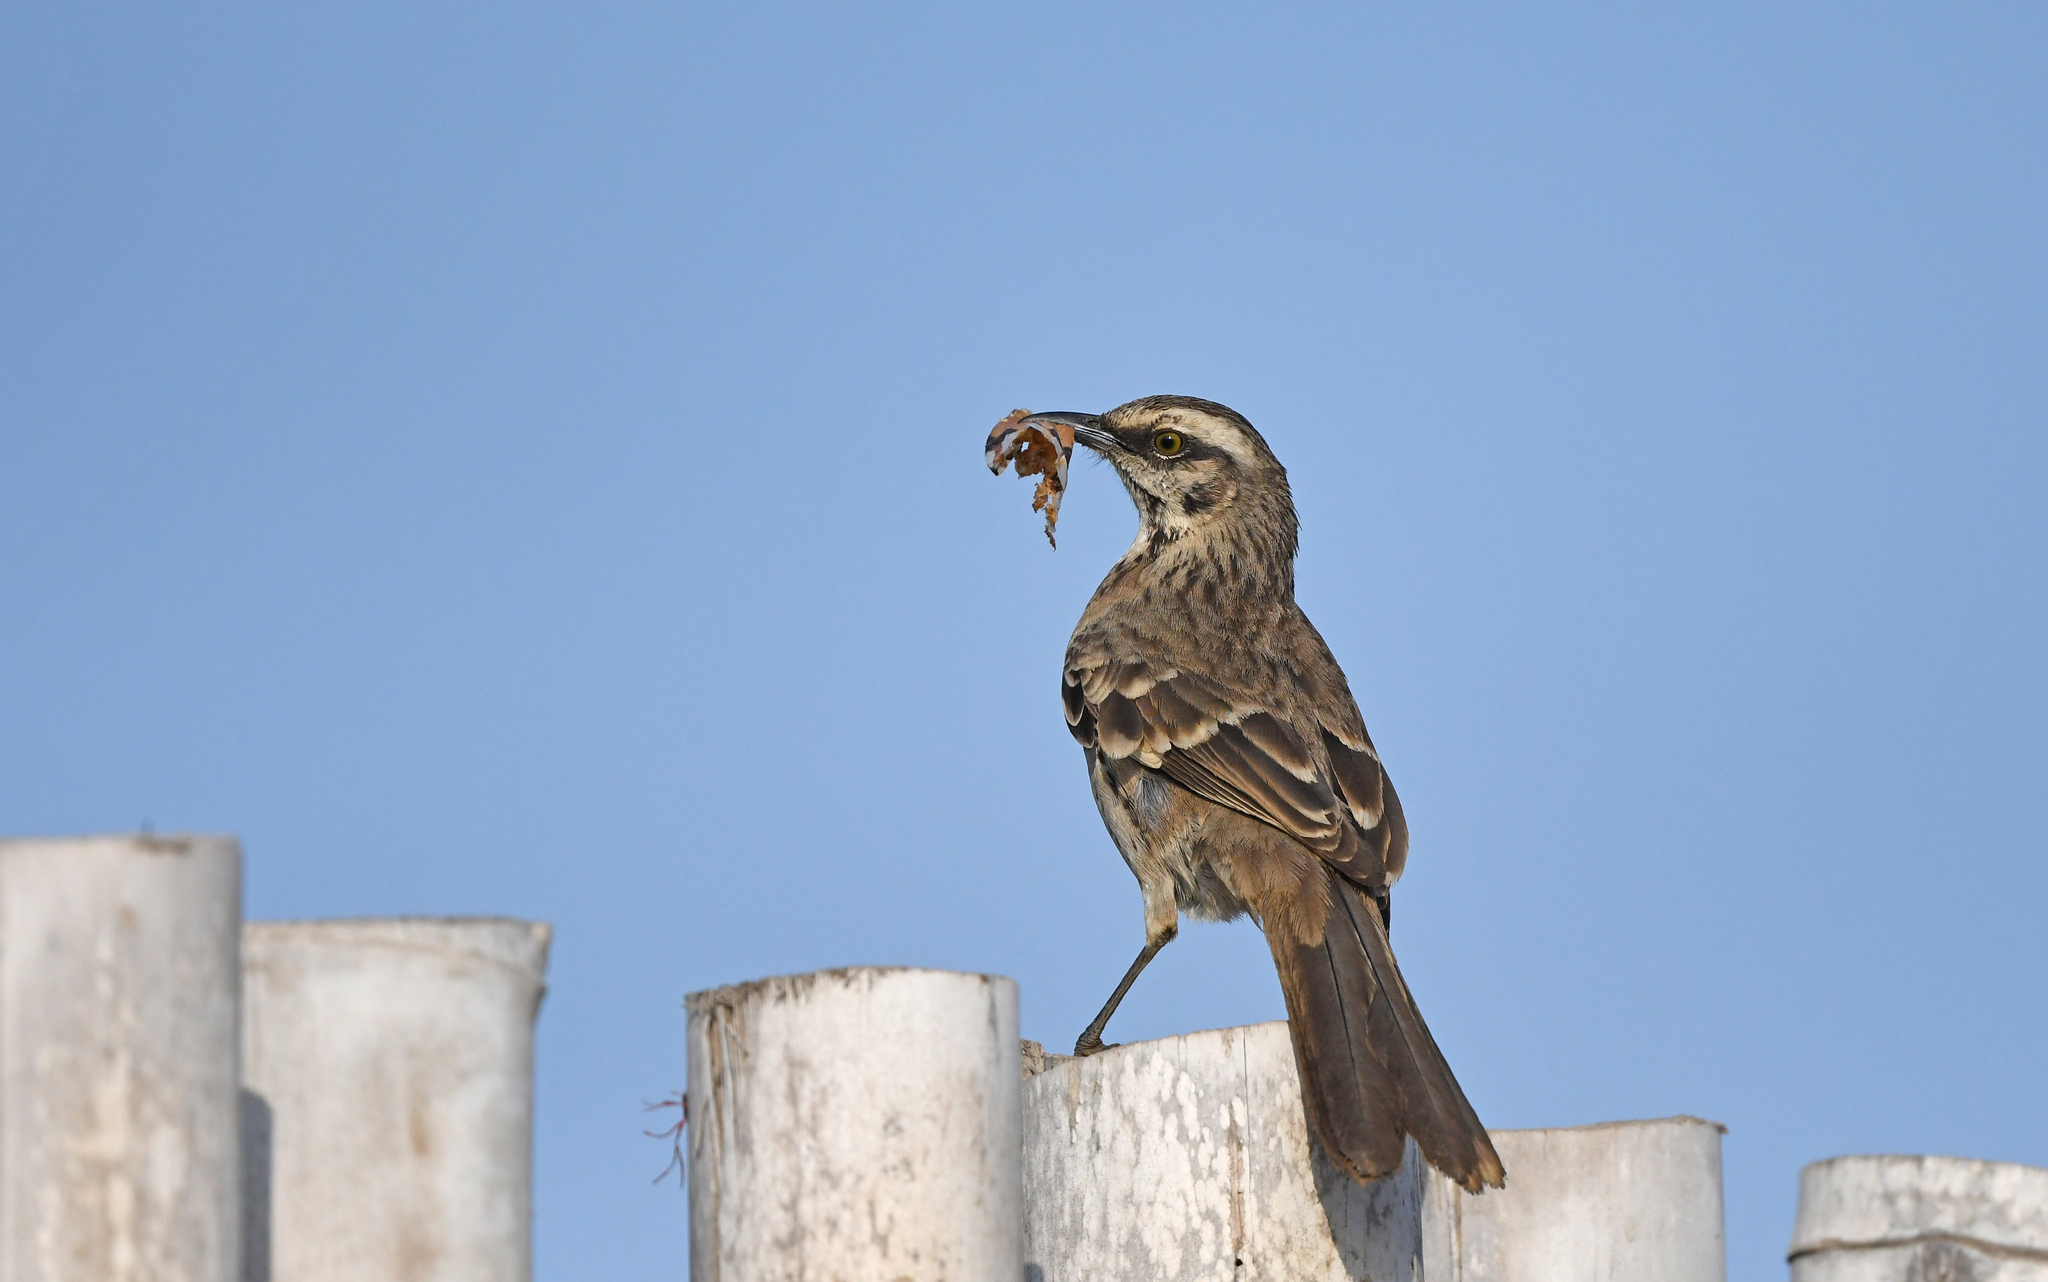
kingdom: Animalia
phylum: Chordata
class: Aves
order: Passeriformes
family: Mimidae
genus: Mimus
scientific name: Mimus longicaudatus
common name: Long-tailed mockingbird
